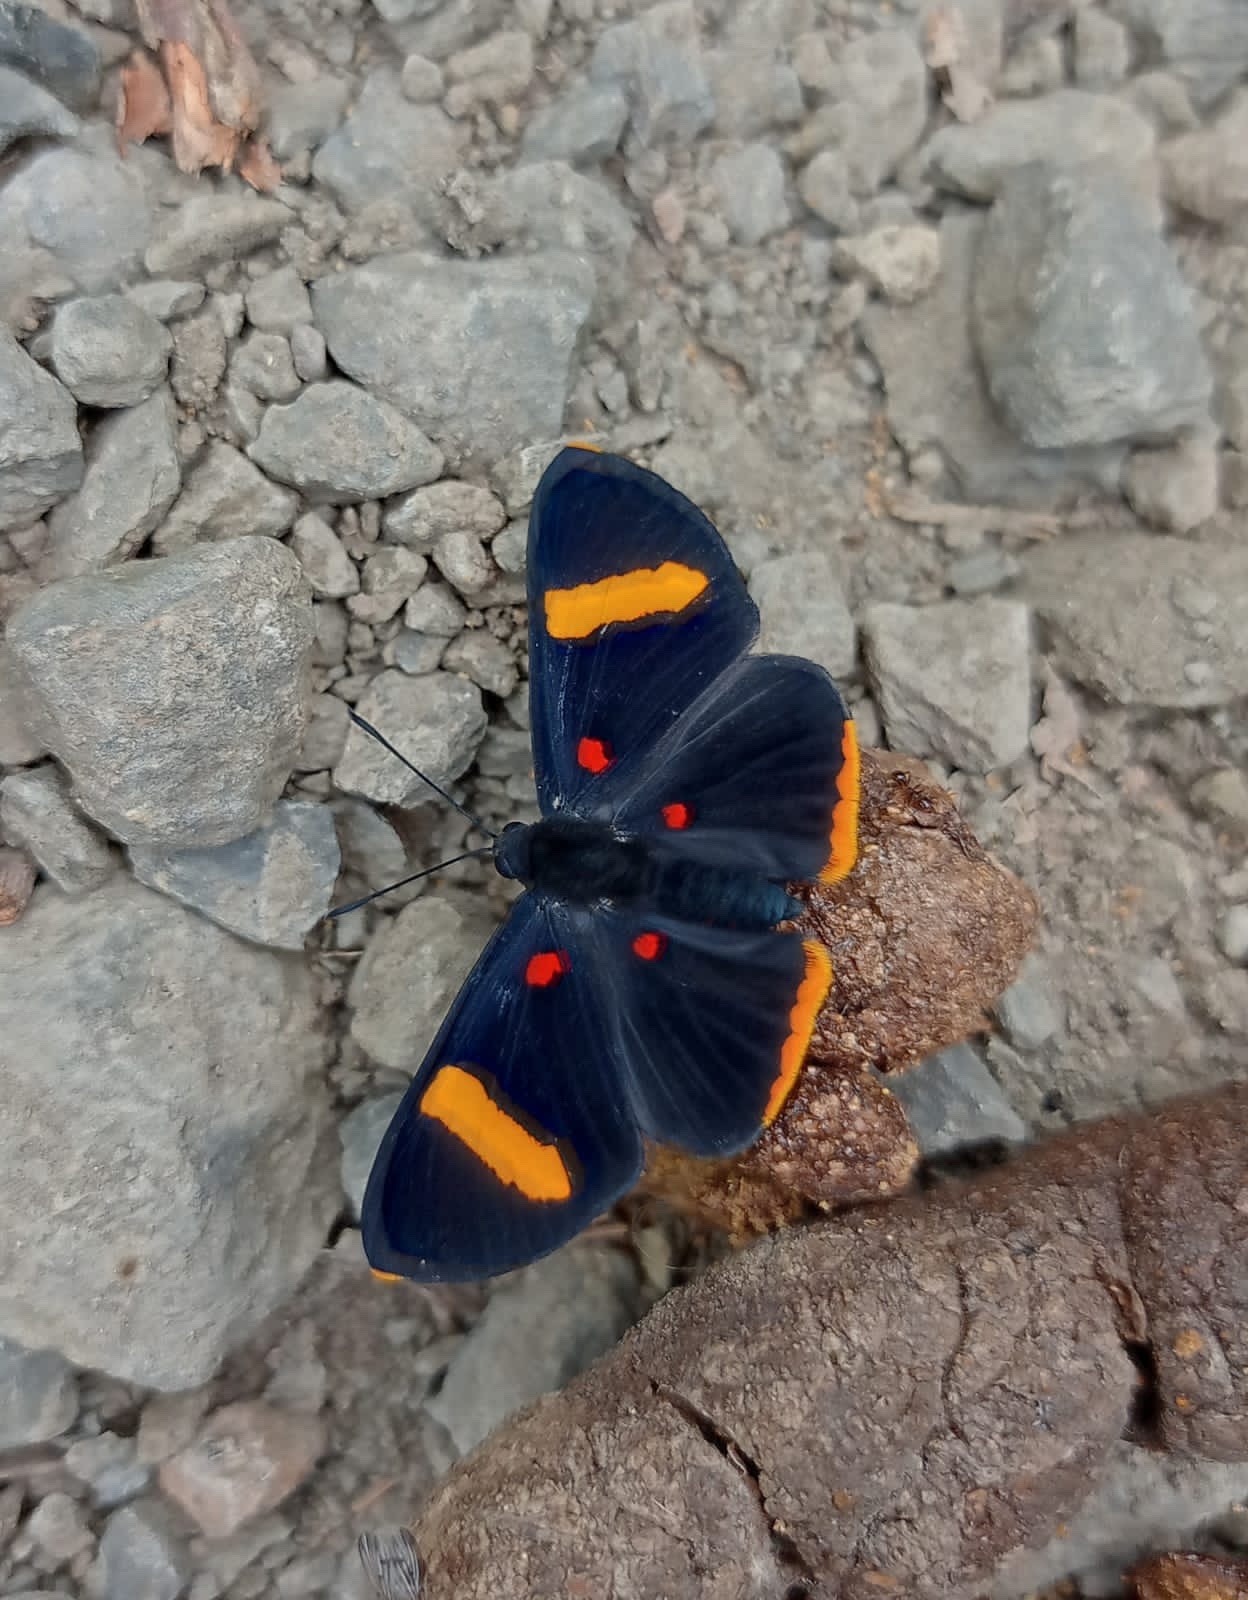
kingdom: Animalia
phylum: Arthropoda
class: Insecta
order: Lepidoptera
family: Lycaenidae
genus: Melanis
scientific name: Melanis electron
